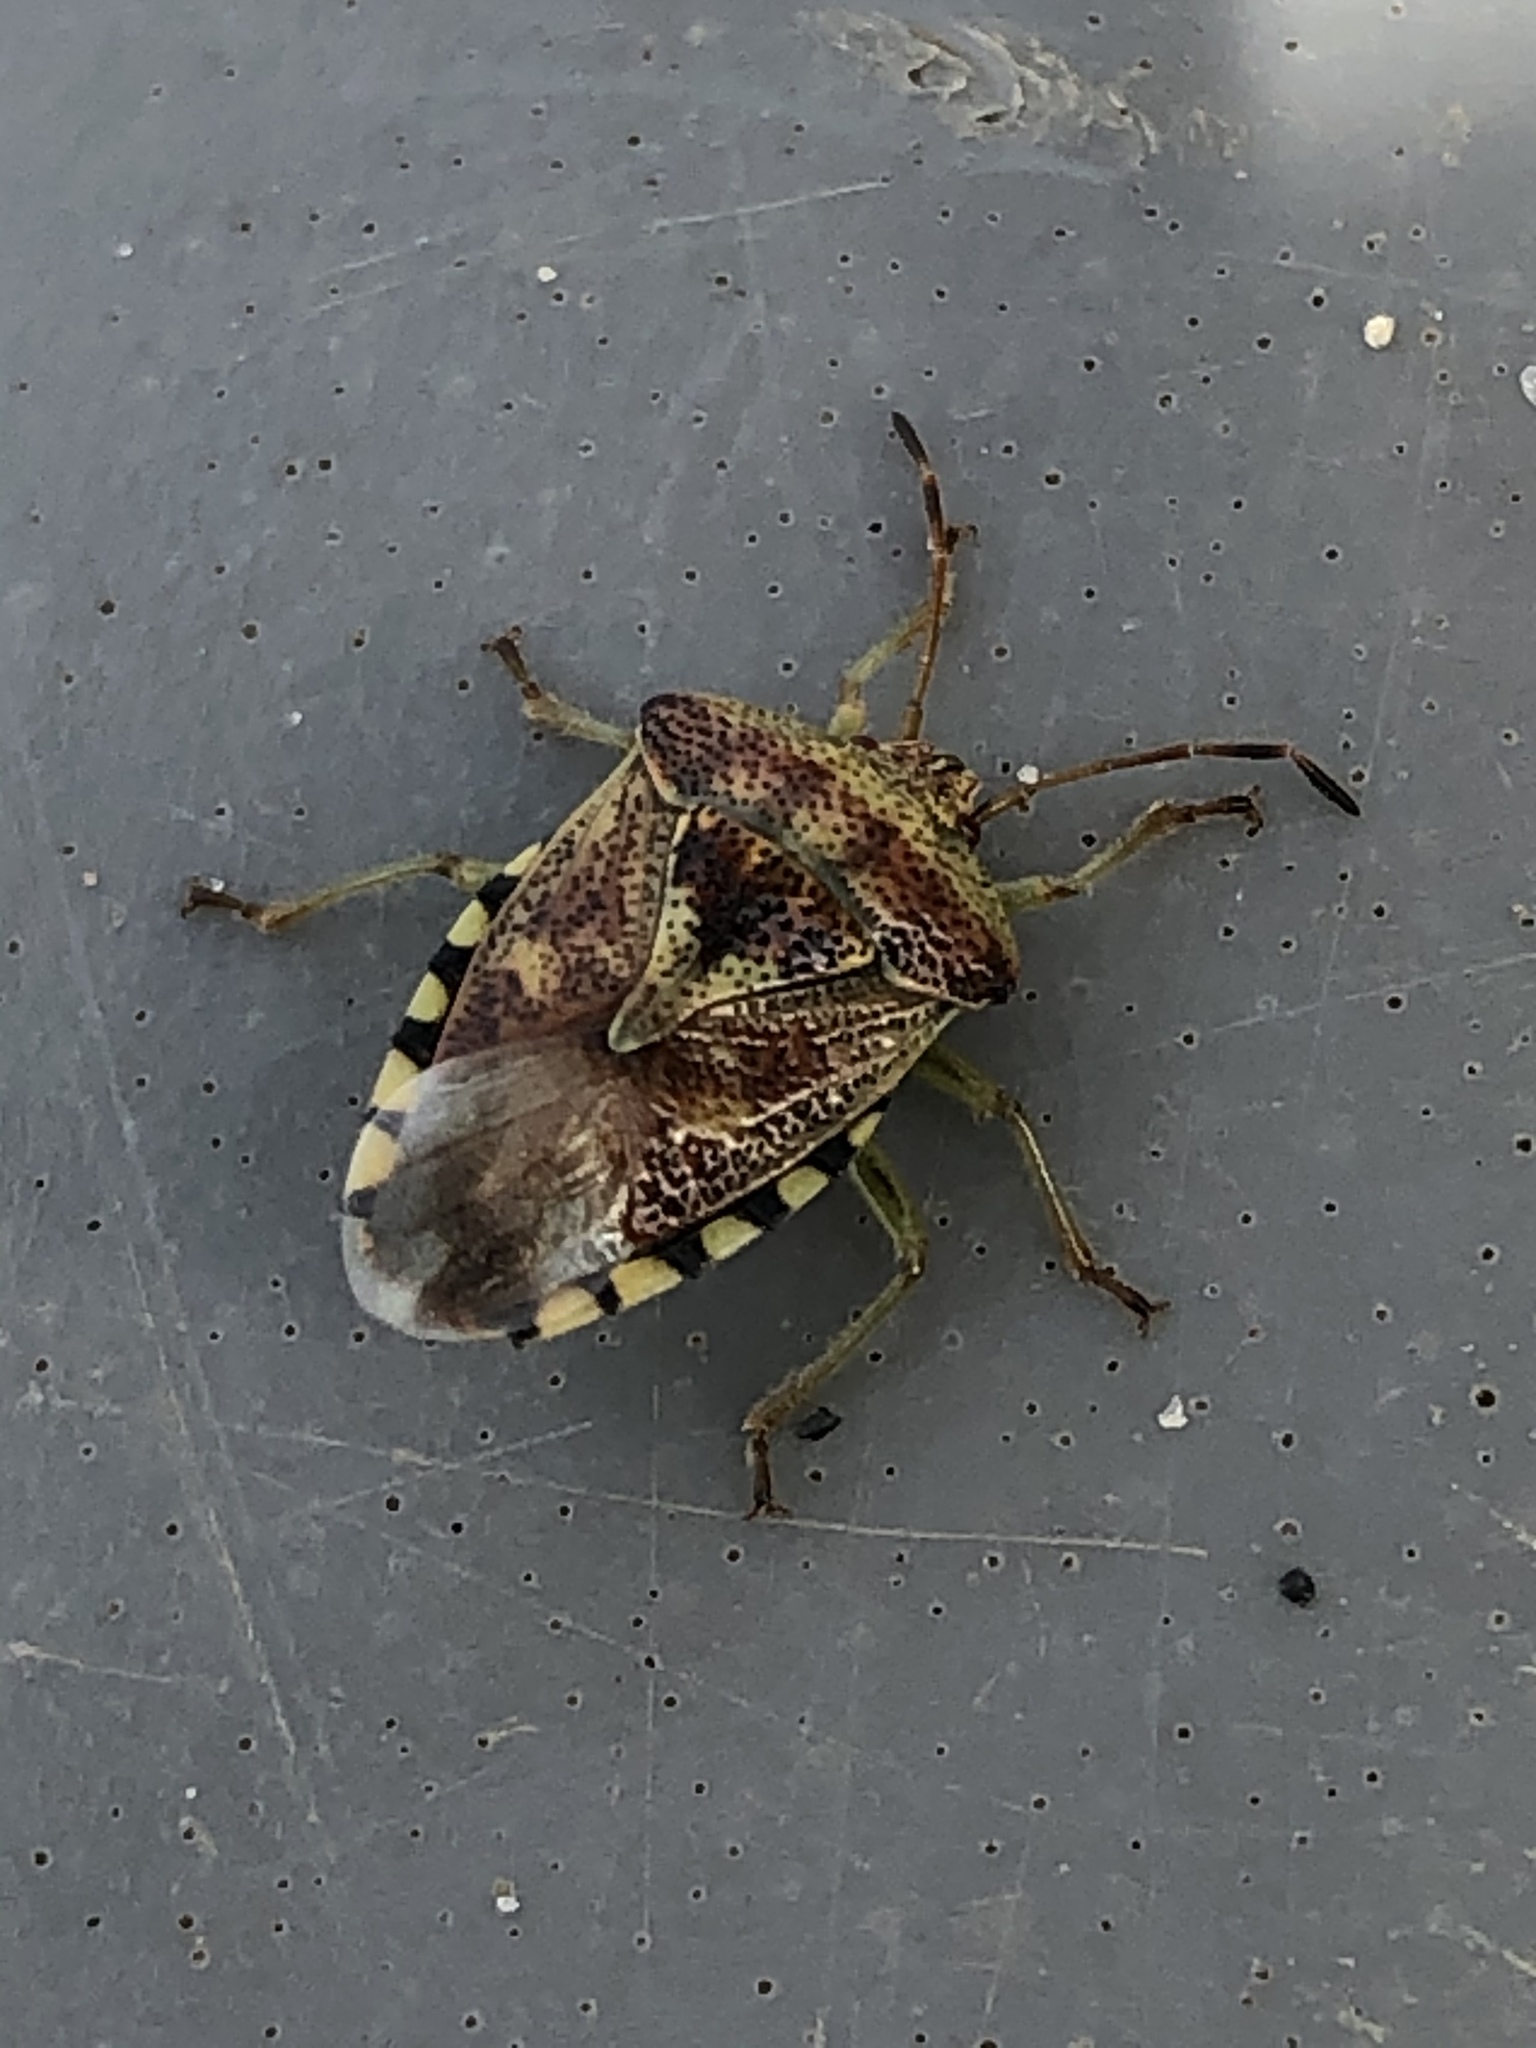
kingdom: Animalia
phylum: Arthropoda
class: Insecta
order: Hemiptera
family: Acanthosomatidae
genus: Elasmucha
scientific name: Elasmucha grisea
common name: Parent bug
